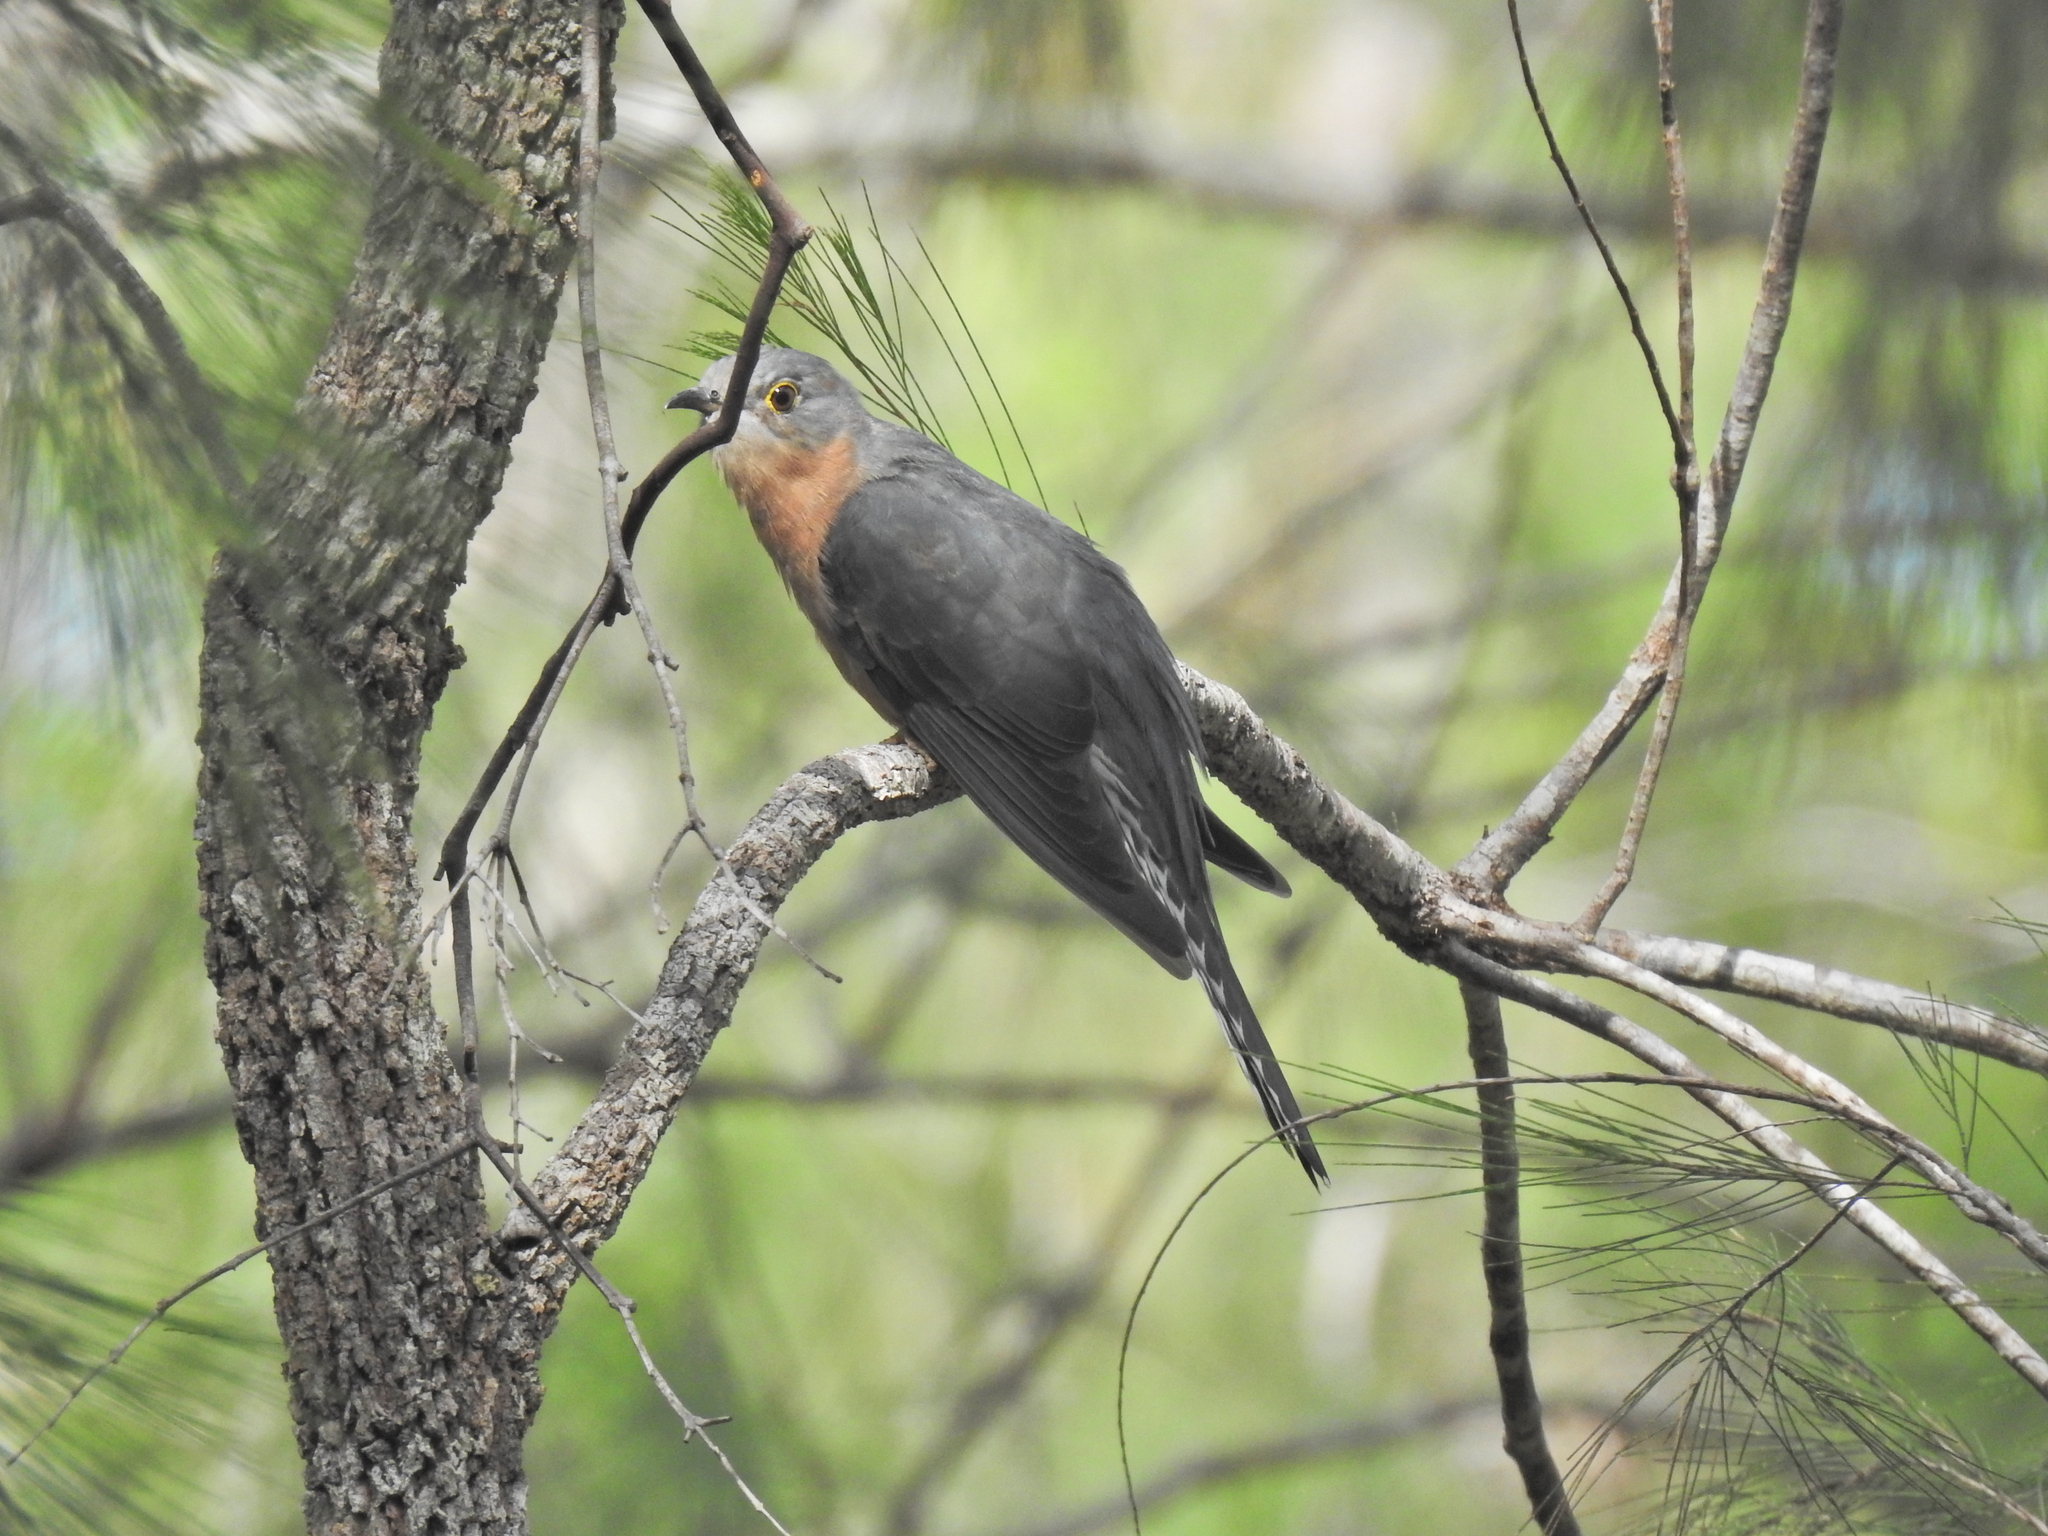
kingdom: Animalia
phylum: Chordata
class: Aves
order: Cuculiformes
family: Cuculidae
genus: Cacomantis
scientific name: Cacomantis flabelliformis
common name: Fan-tailed cuckoo
